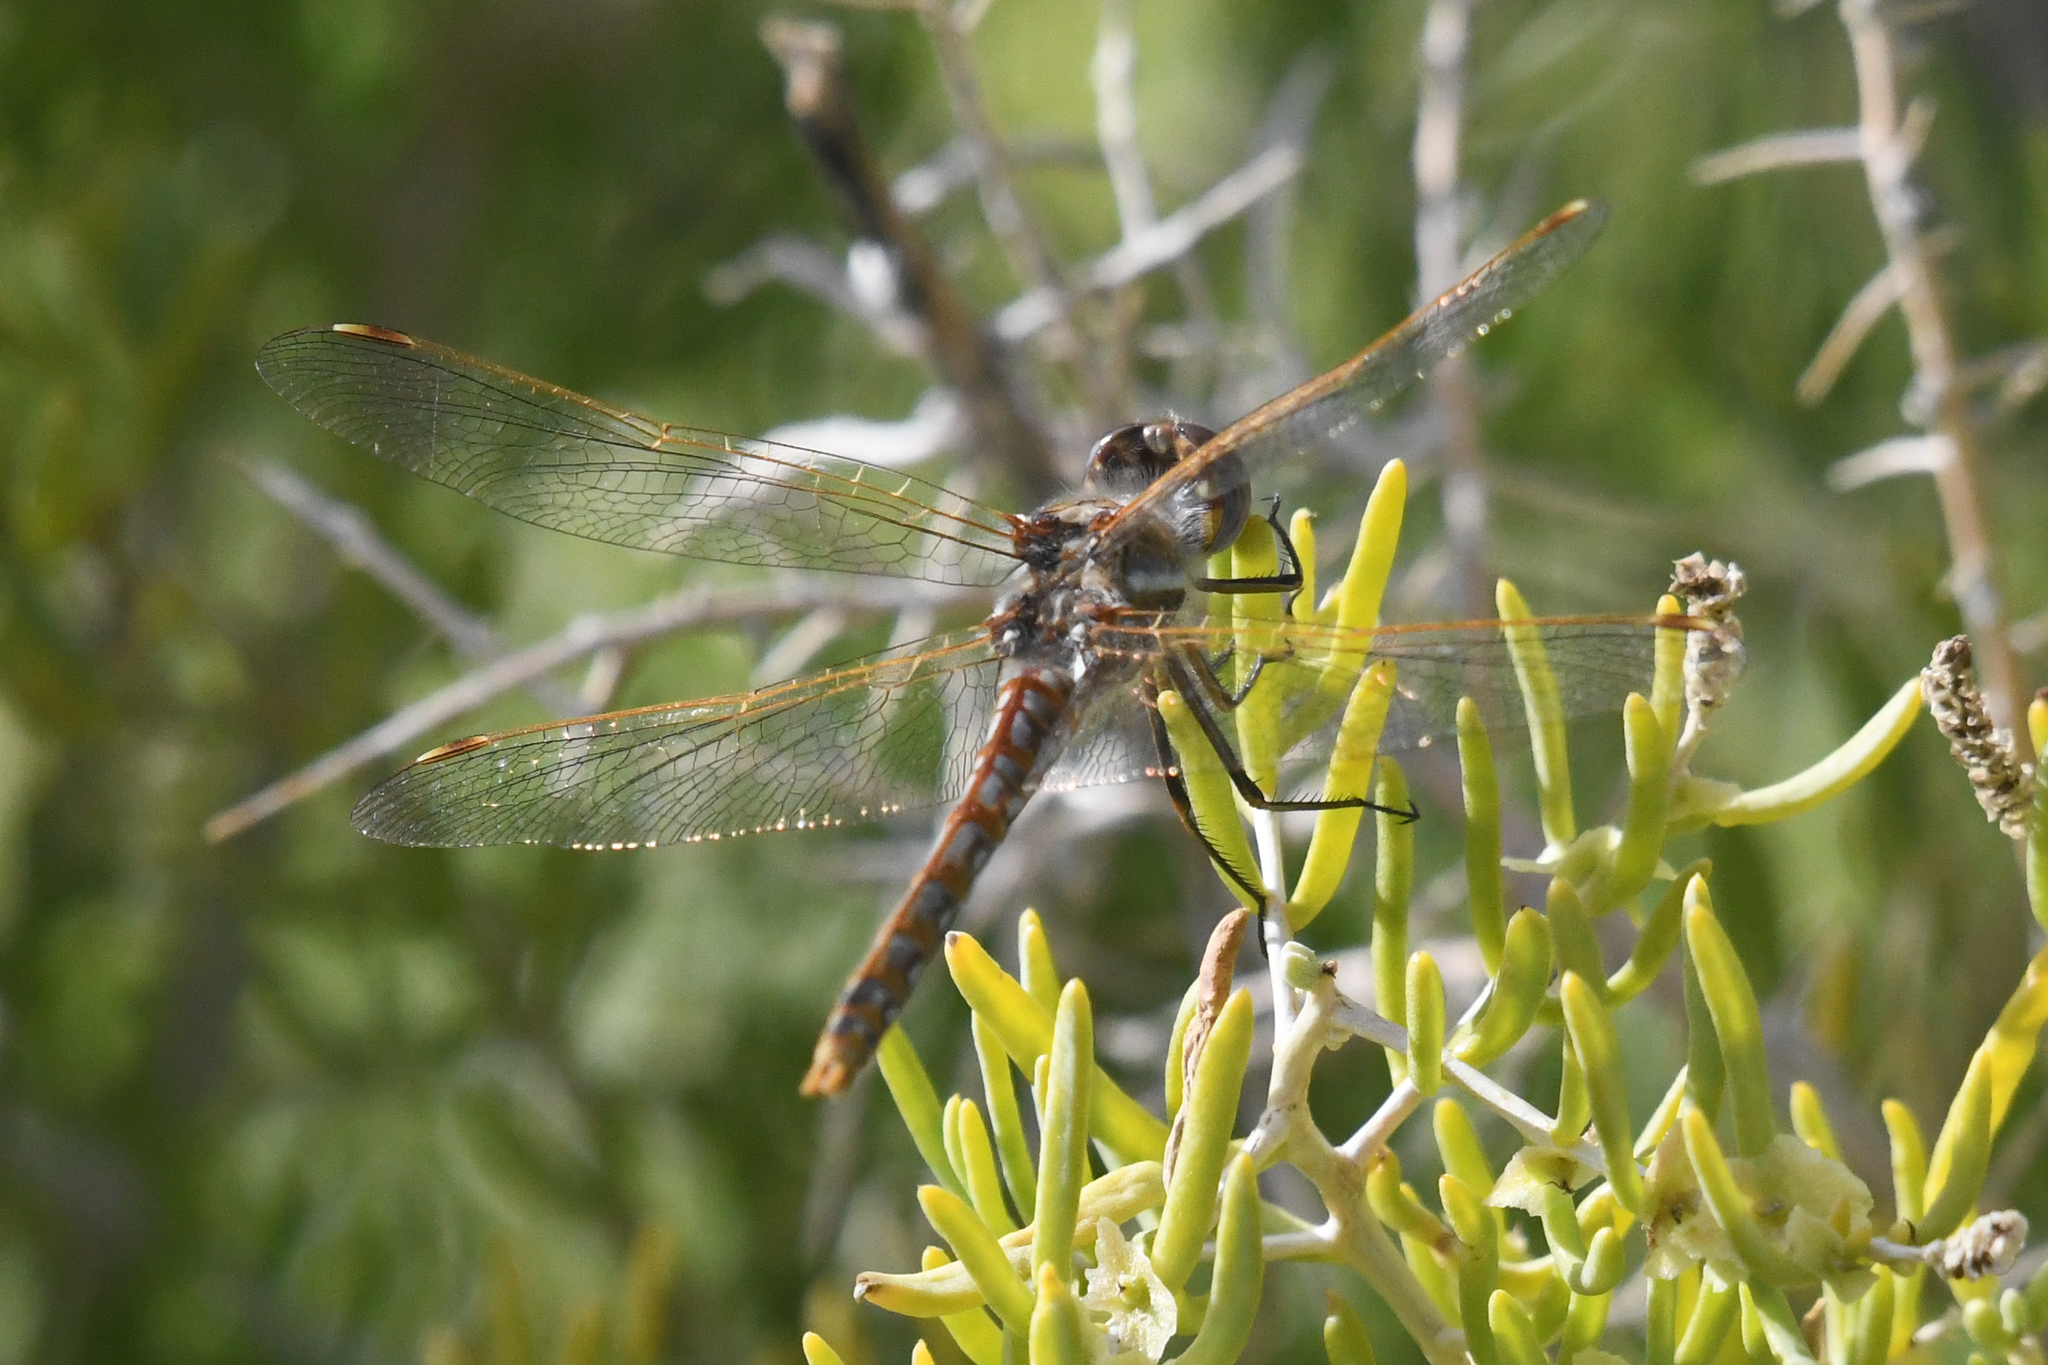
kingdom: Animalia
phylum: Arthropoda
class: Insecta
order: Odonata
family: Libellulidae
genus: Sympetrum
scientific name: Sympetrum corruptum
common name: Variegated meadowhawk
